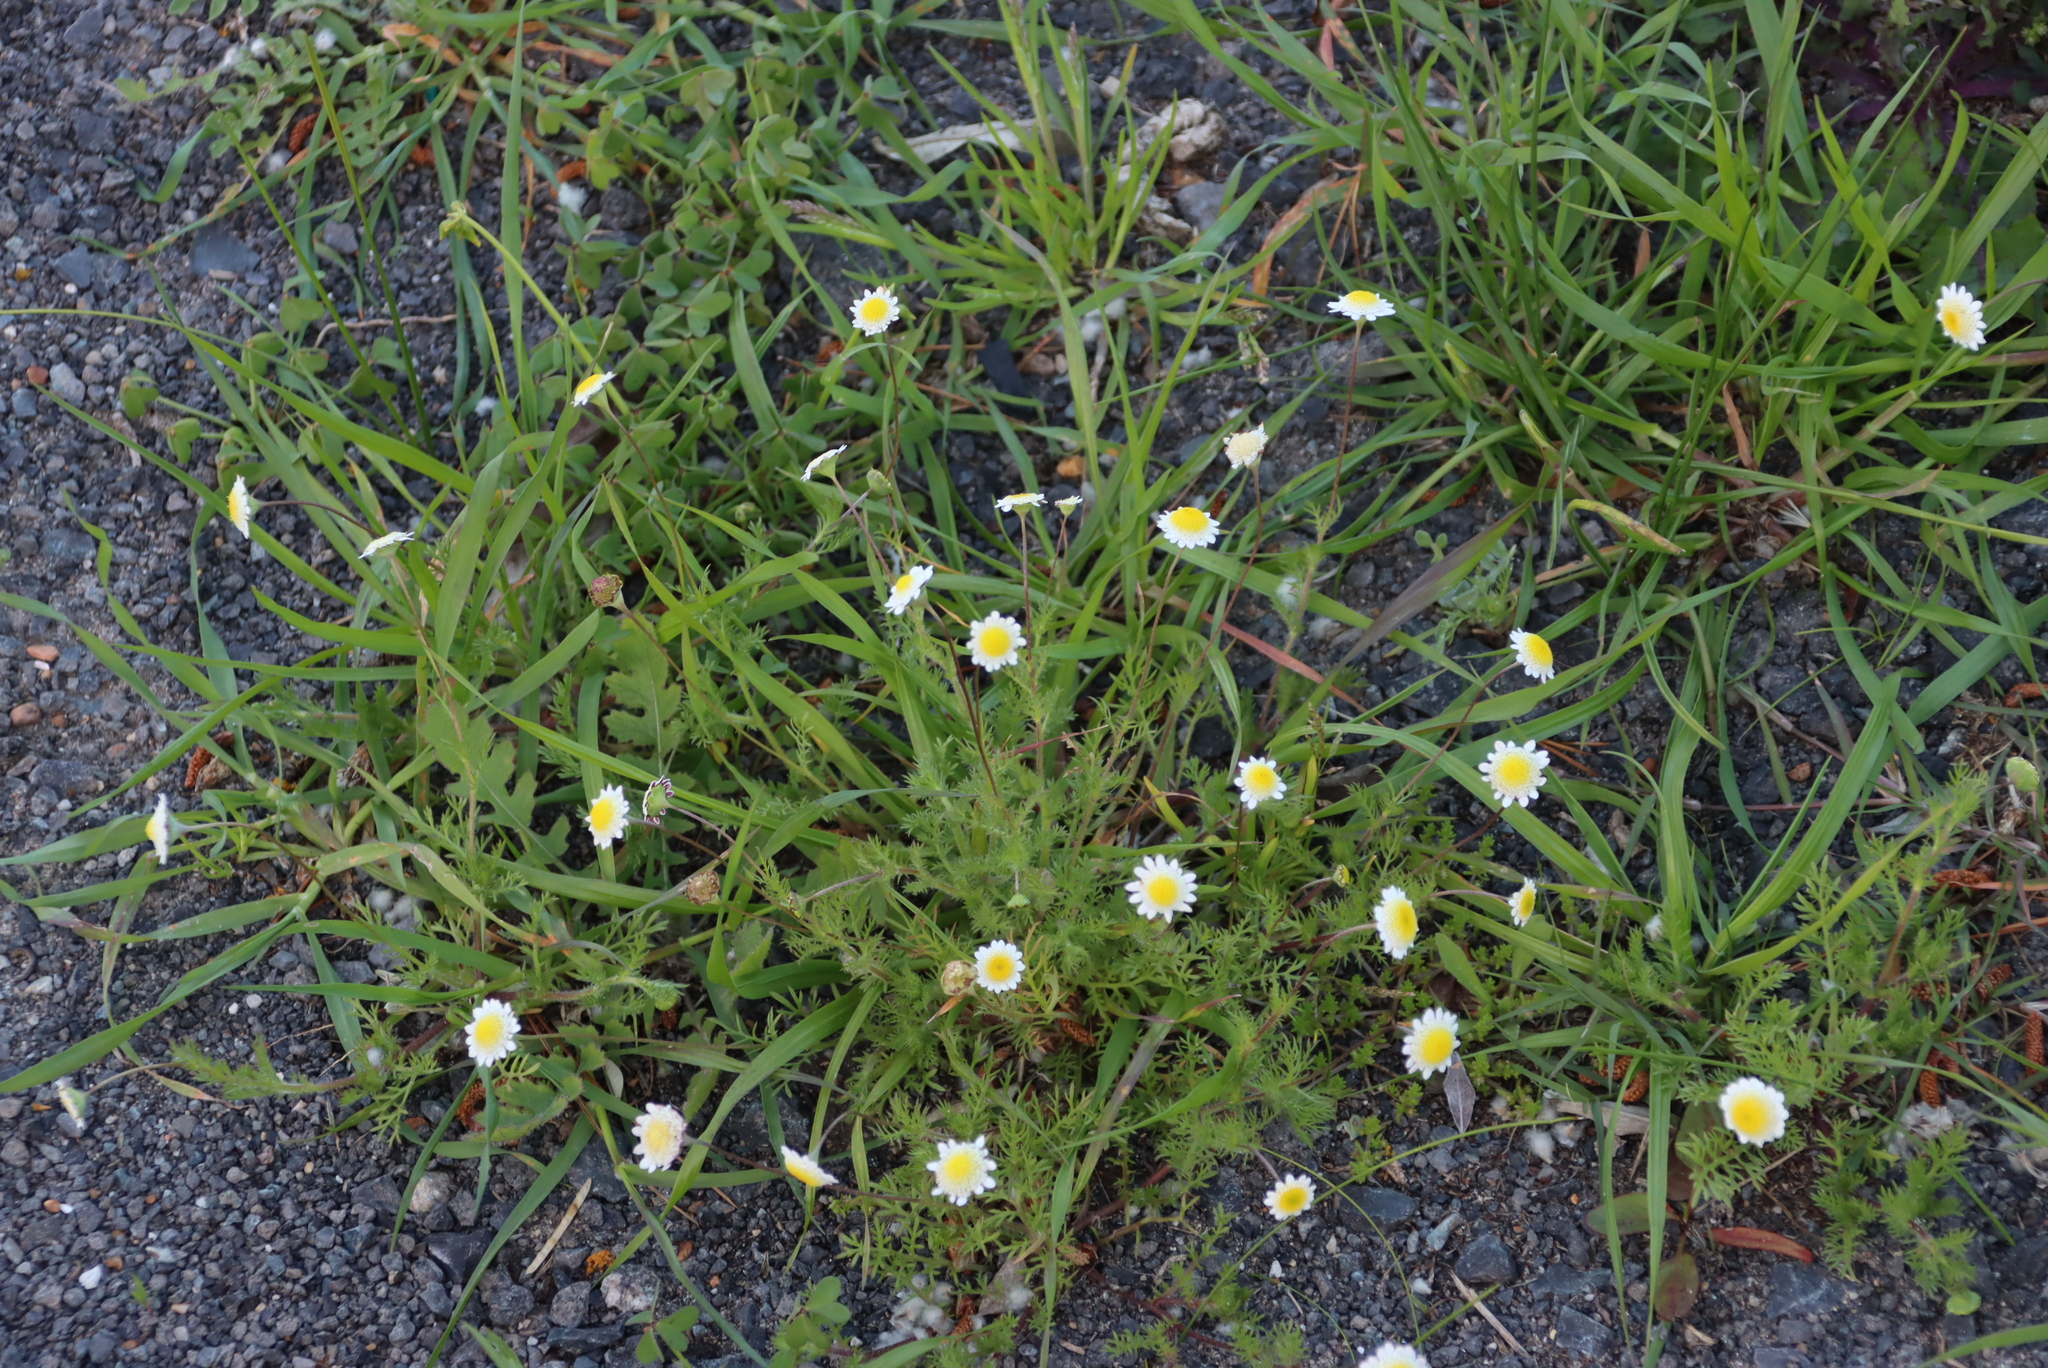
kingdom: Plantae
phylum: Tracheophyta
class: Magnoliopsida
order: Asterales
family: Asteraceae
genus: Cotula
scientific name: Cotula turbinata
